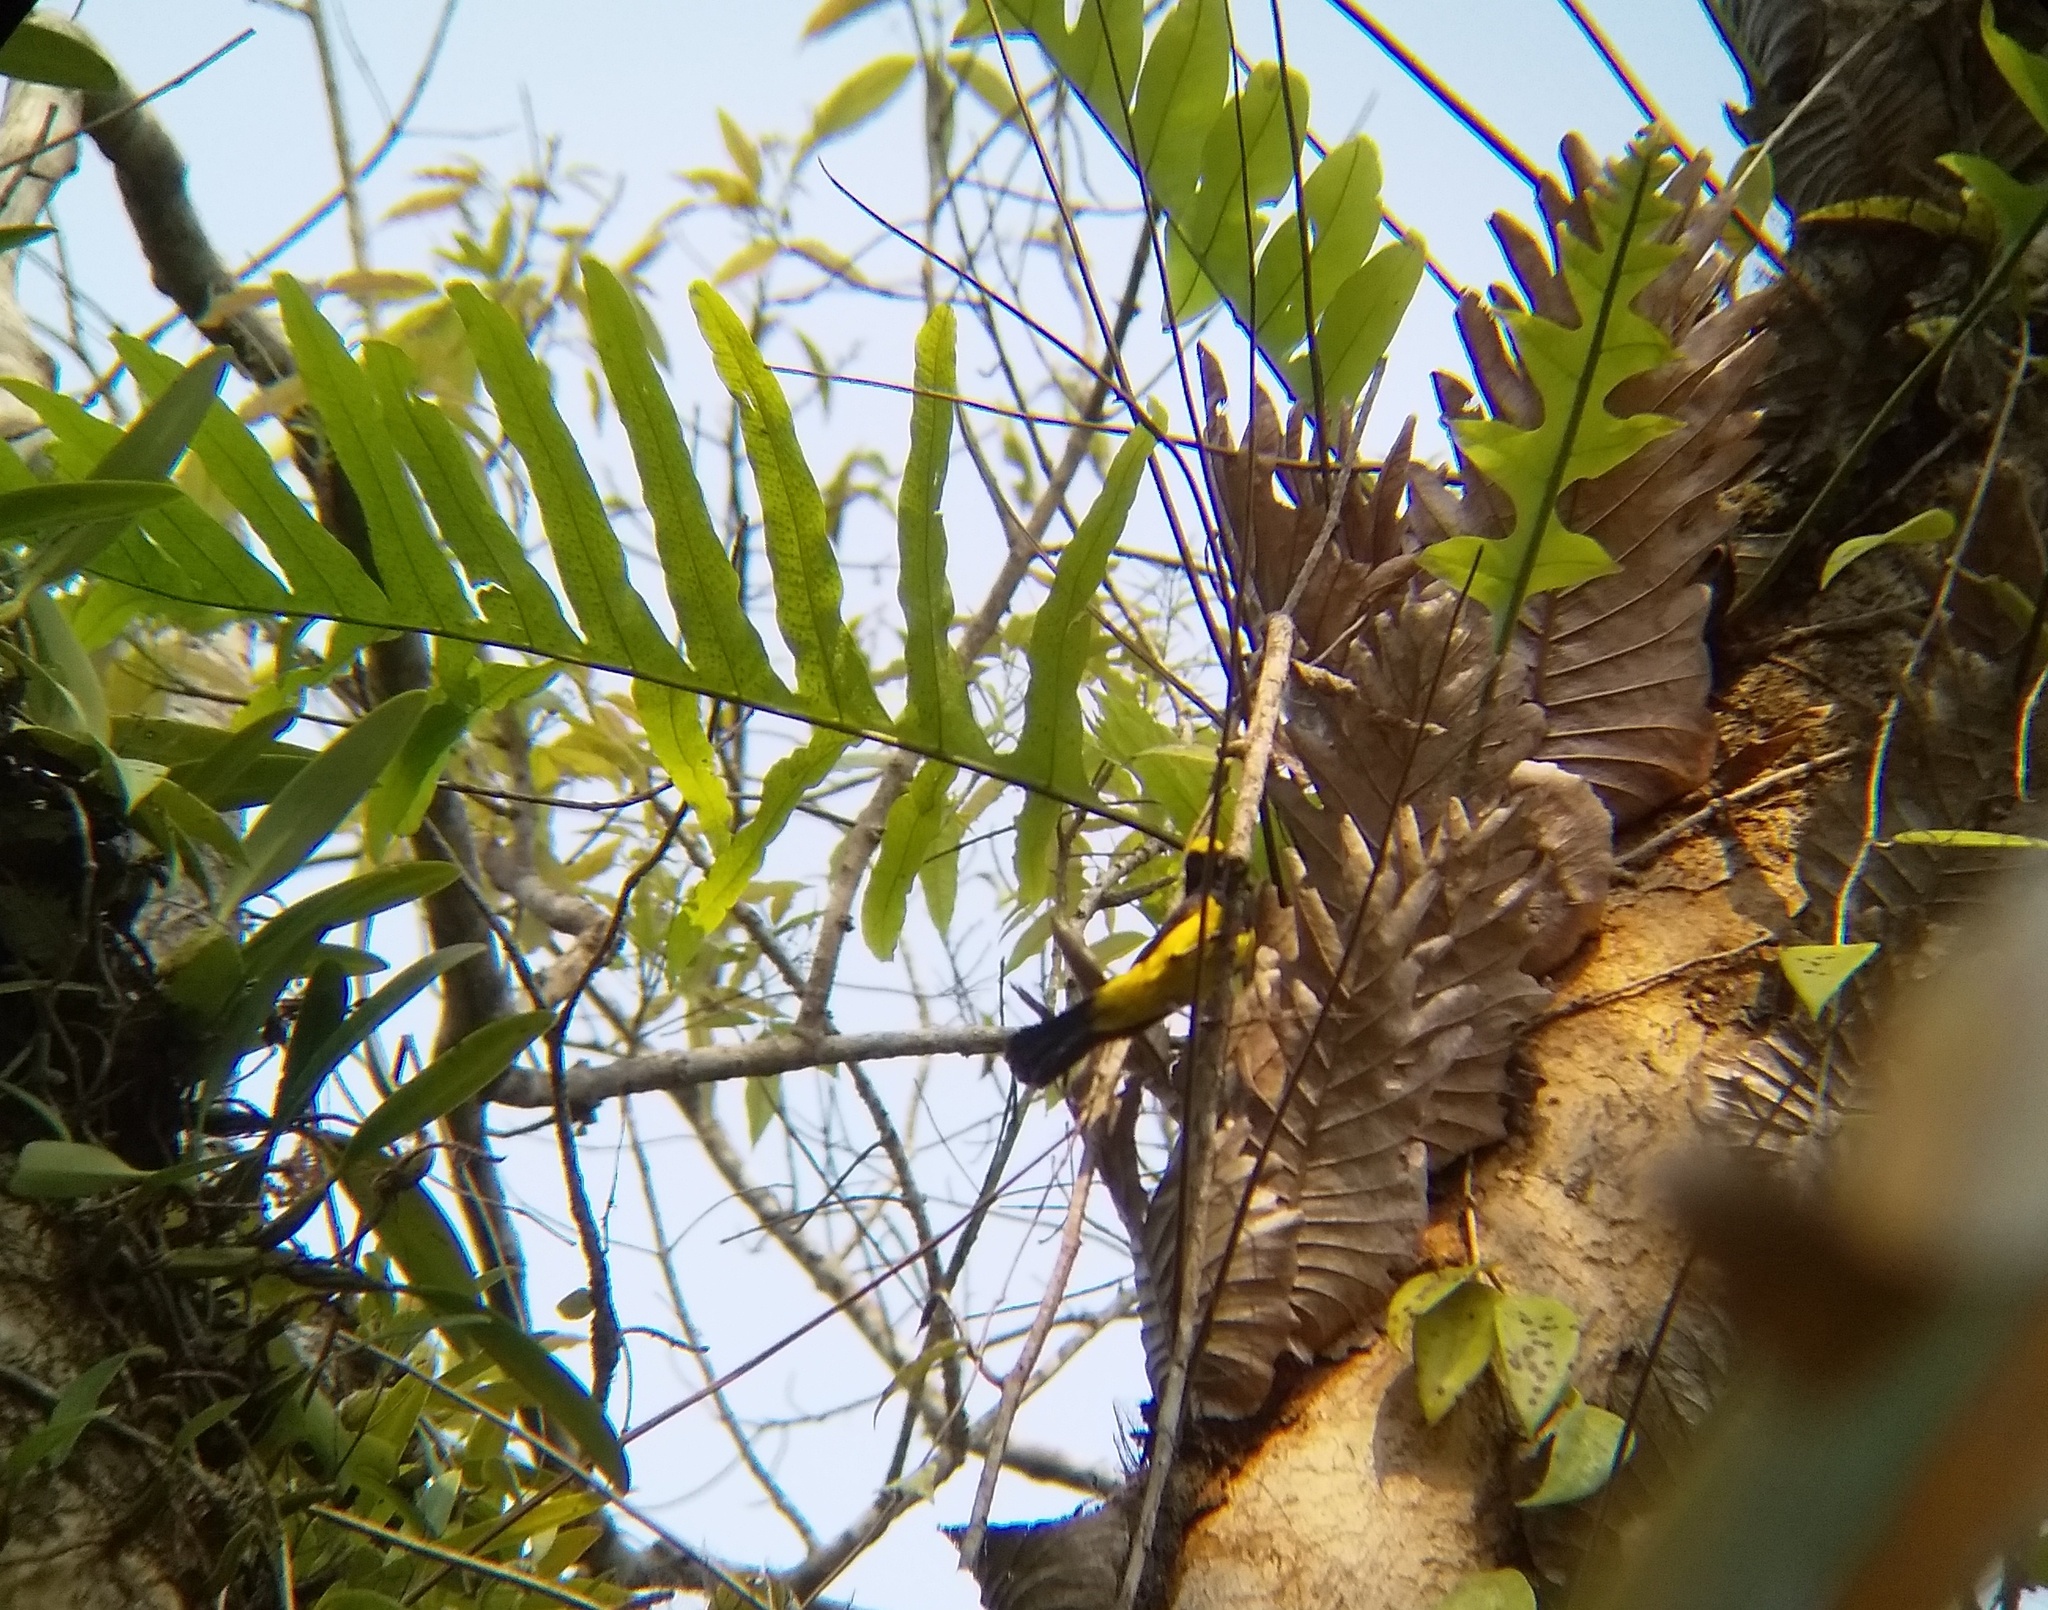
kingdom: Animalia
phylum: Chordata
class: Aves
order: Passeriformes
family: Paridae
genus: Melanochlora
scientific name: Melanochlora sultanea
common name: Sultan tit
